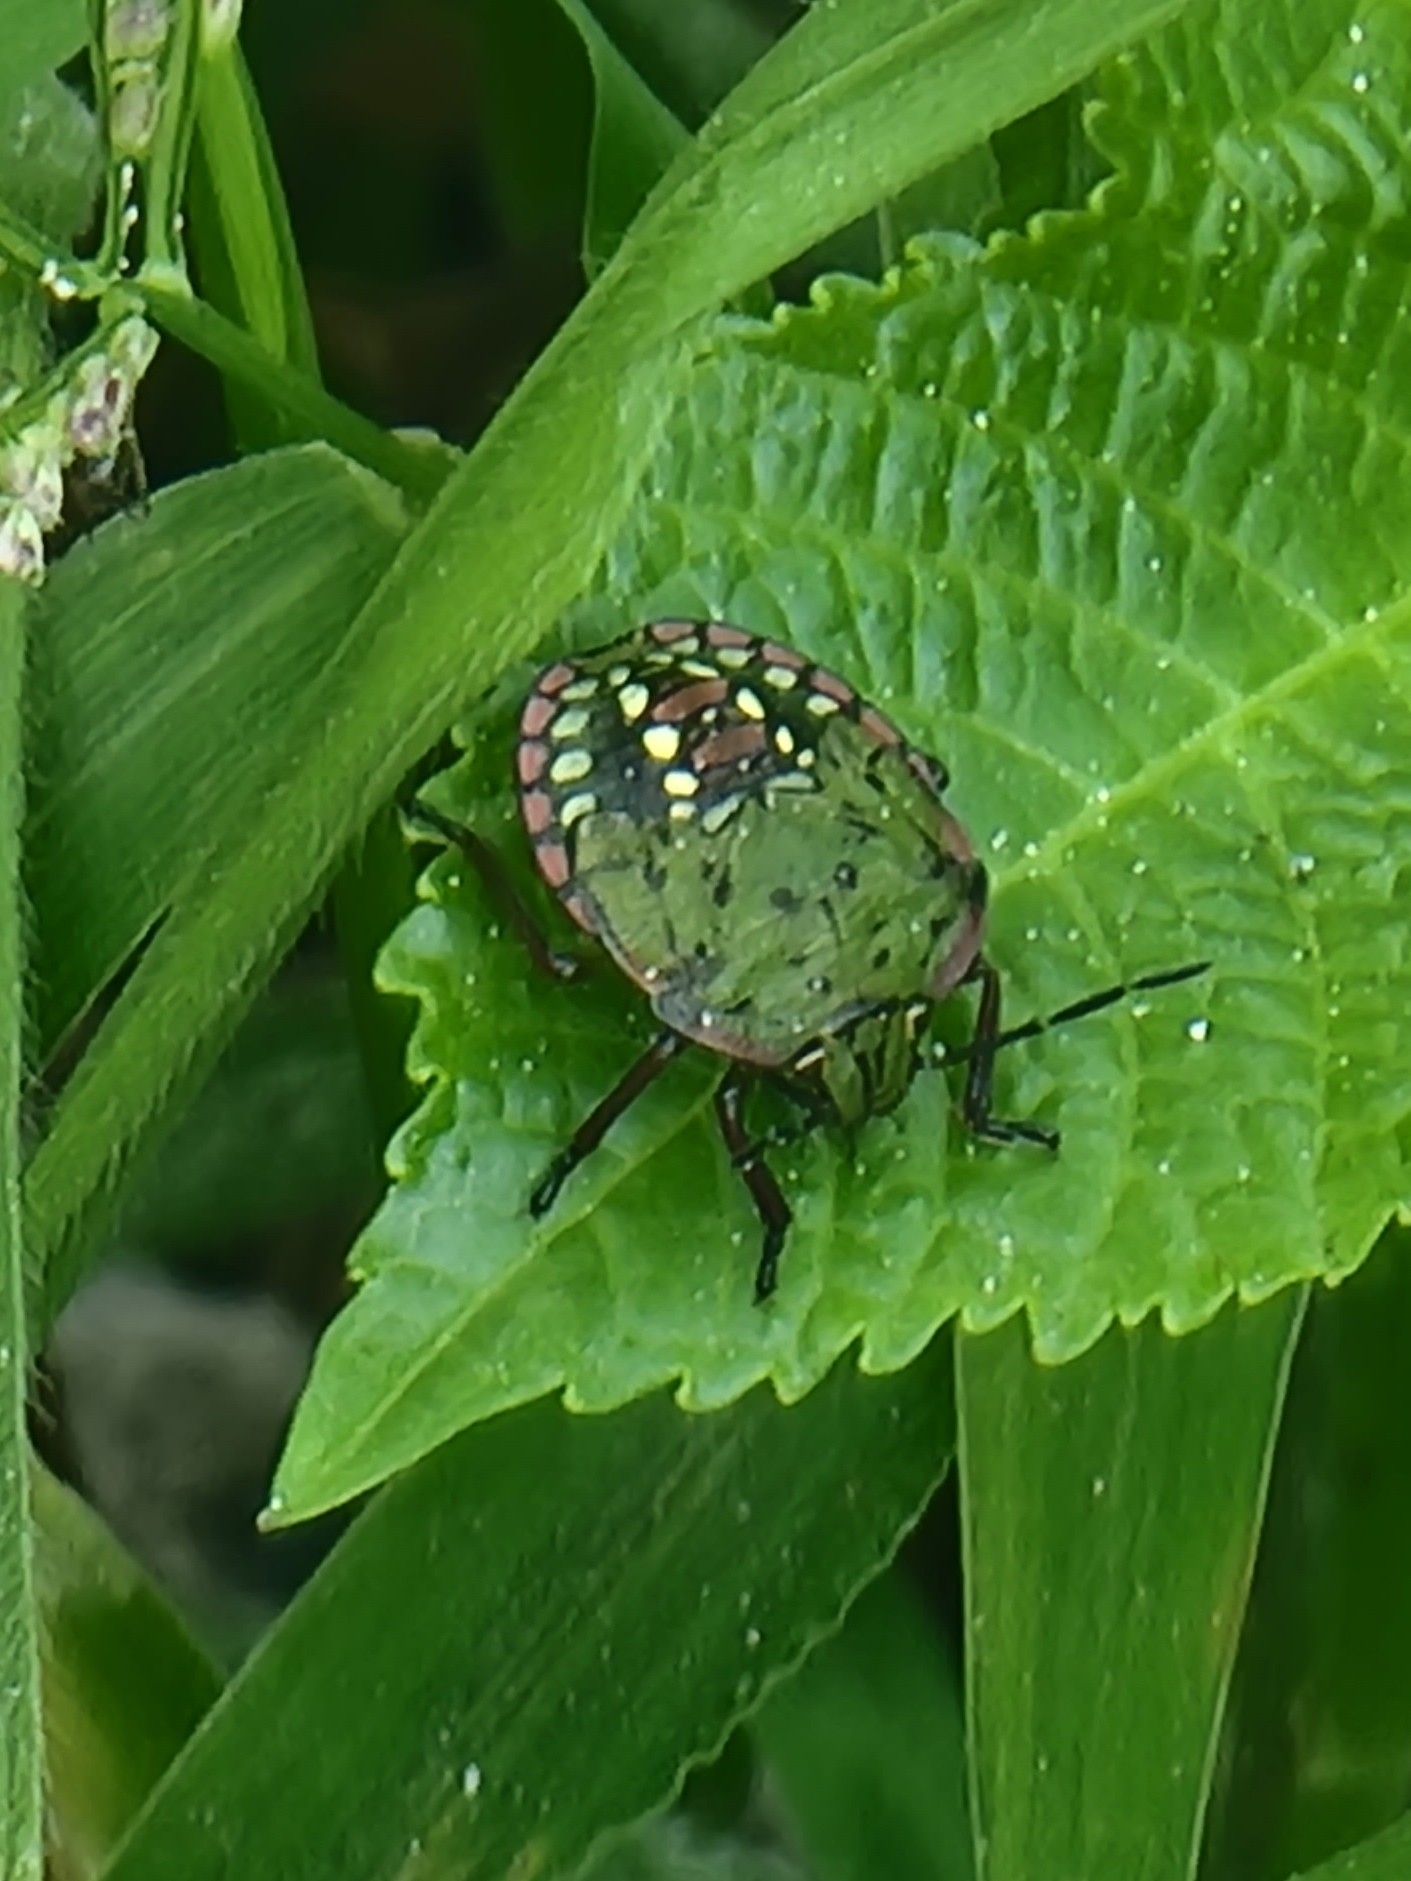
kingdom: Animalia
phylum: Arthropoda
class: Insecta
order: Hemiptera
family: Pentatomidae
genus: Nezara
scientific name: Nezara viridula
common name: Southern green stink bug
